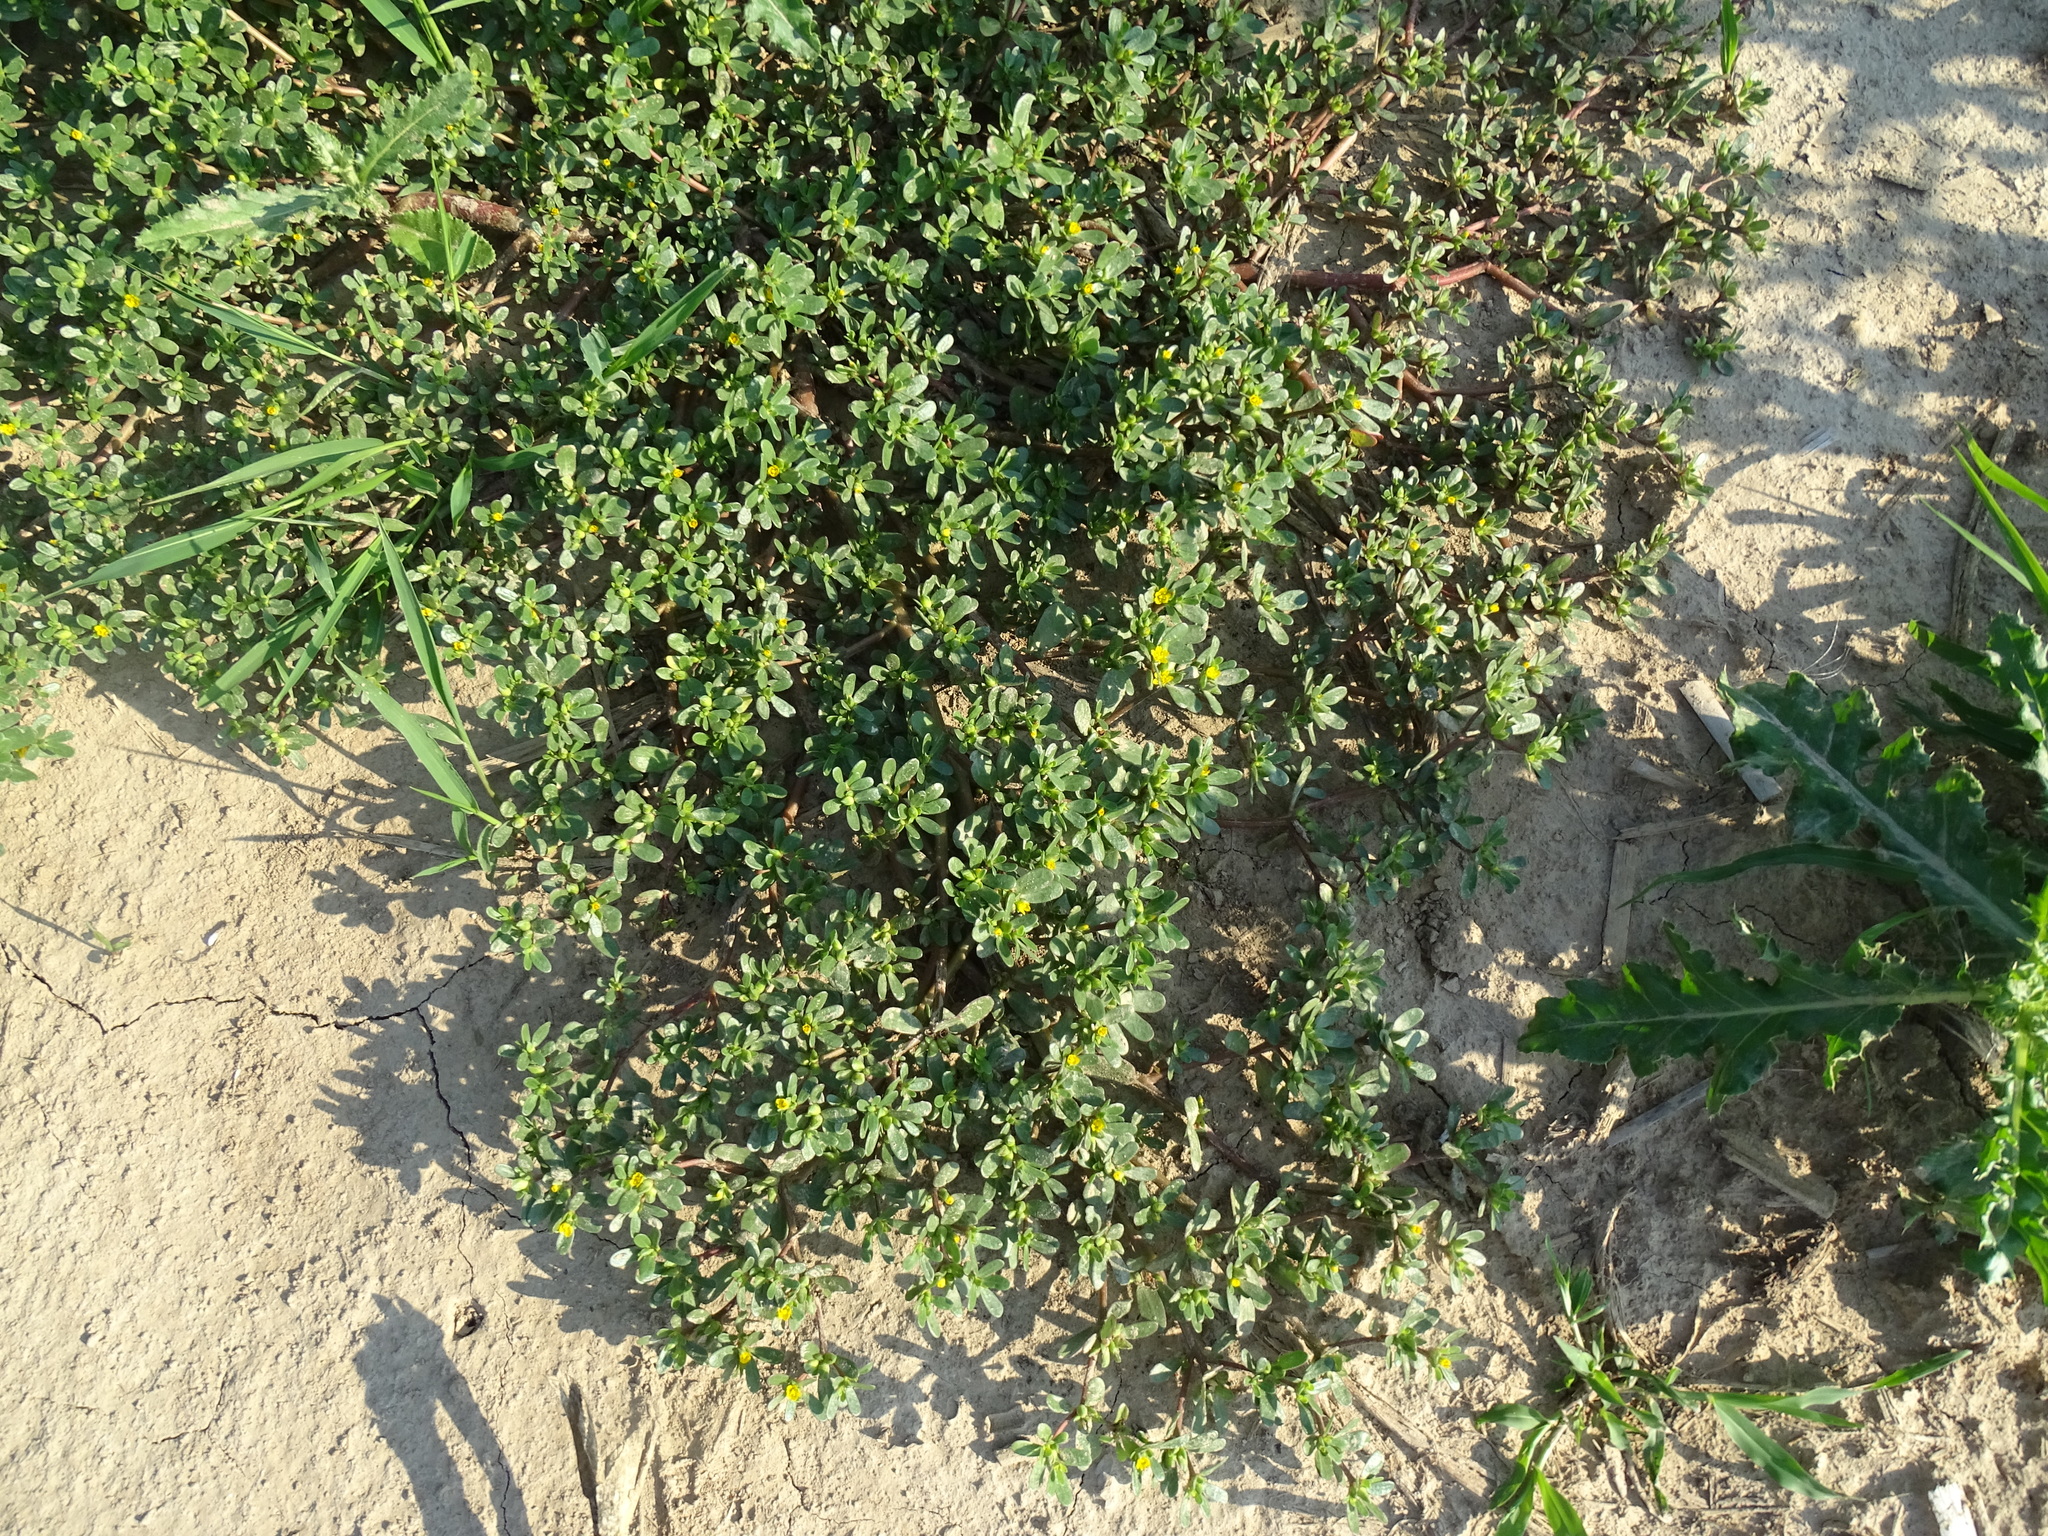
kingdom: Plantae
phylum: Tracheophyta
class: Magnoliopsida
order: Caryophyllales
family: Portulacaceae
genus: Portulaca
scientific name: Portulaca oleracea
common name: Common purslane
